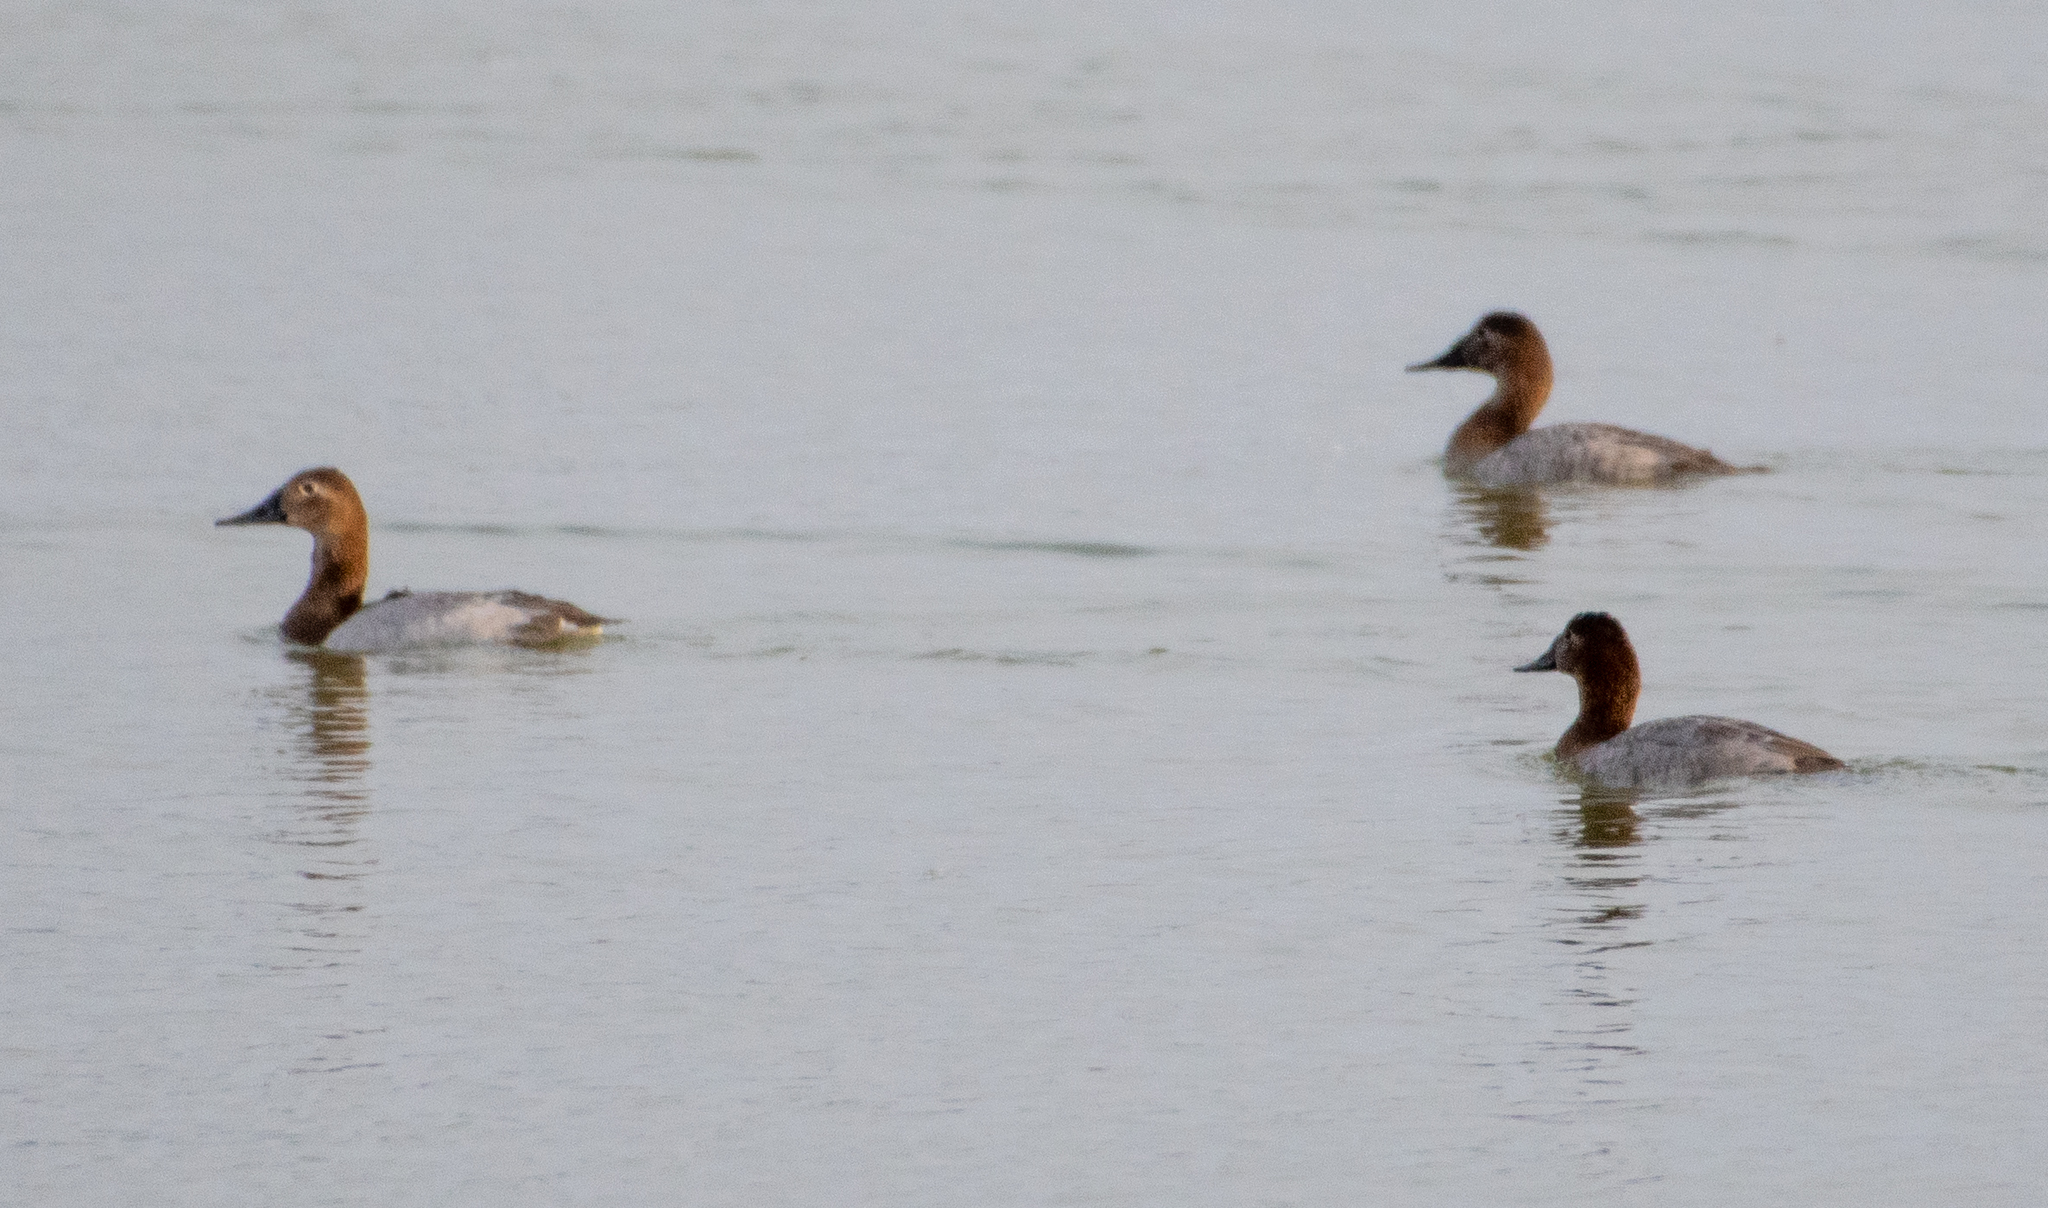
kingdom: Animalia
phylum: Chordata
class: Aves
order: Anseriformes
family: Anatidae
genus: Aythya
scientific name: Aythya valisineria
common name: Canvasback
